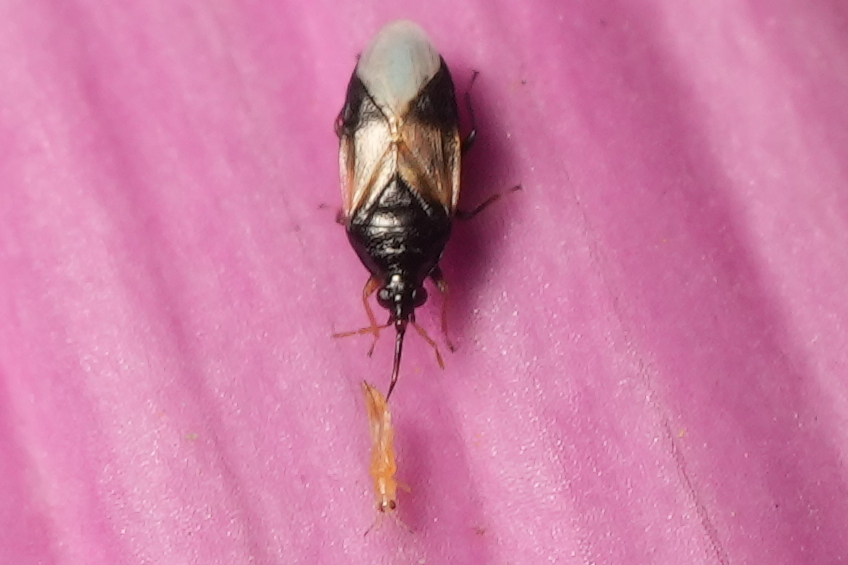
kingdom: Animalia
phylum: Arthropoda
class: Insecta
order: Hemiptera
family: Anthocoridae
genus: Orius
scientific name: Orius insidiosus
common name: Insidious flower bug
